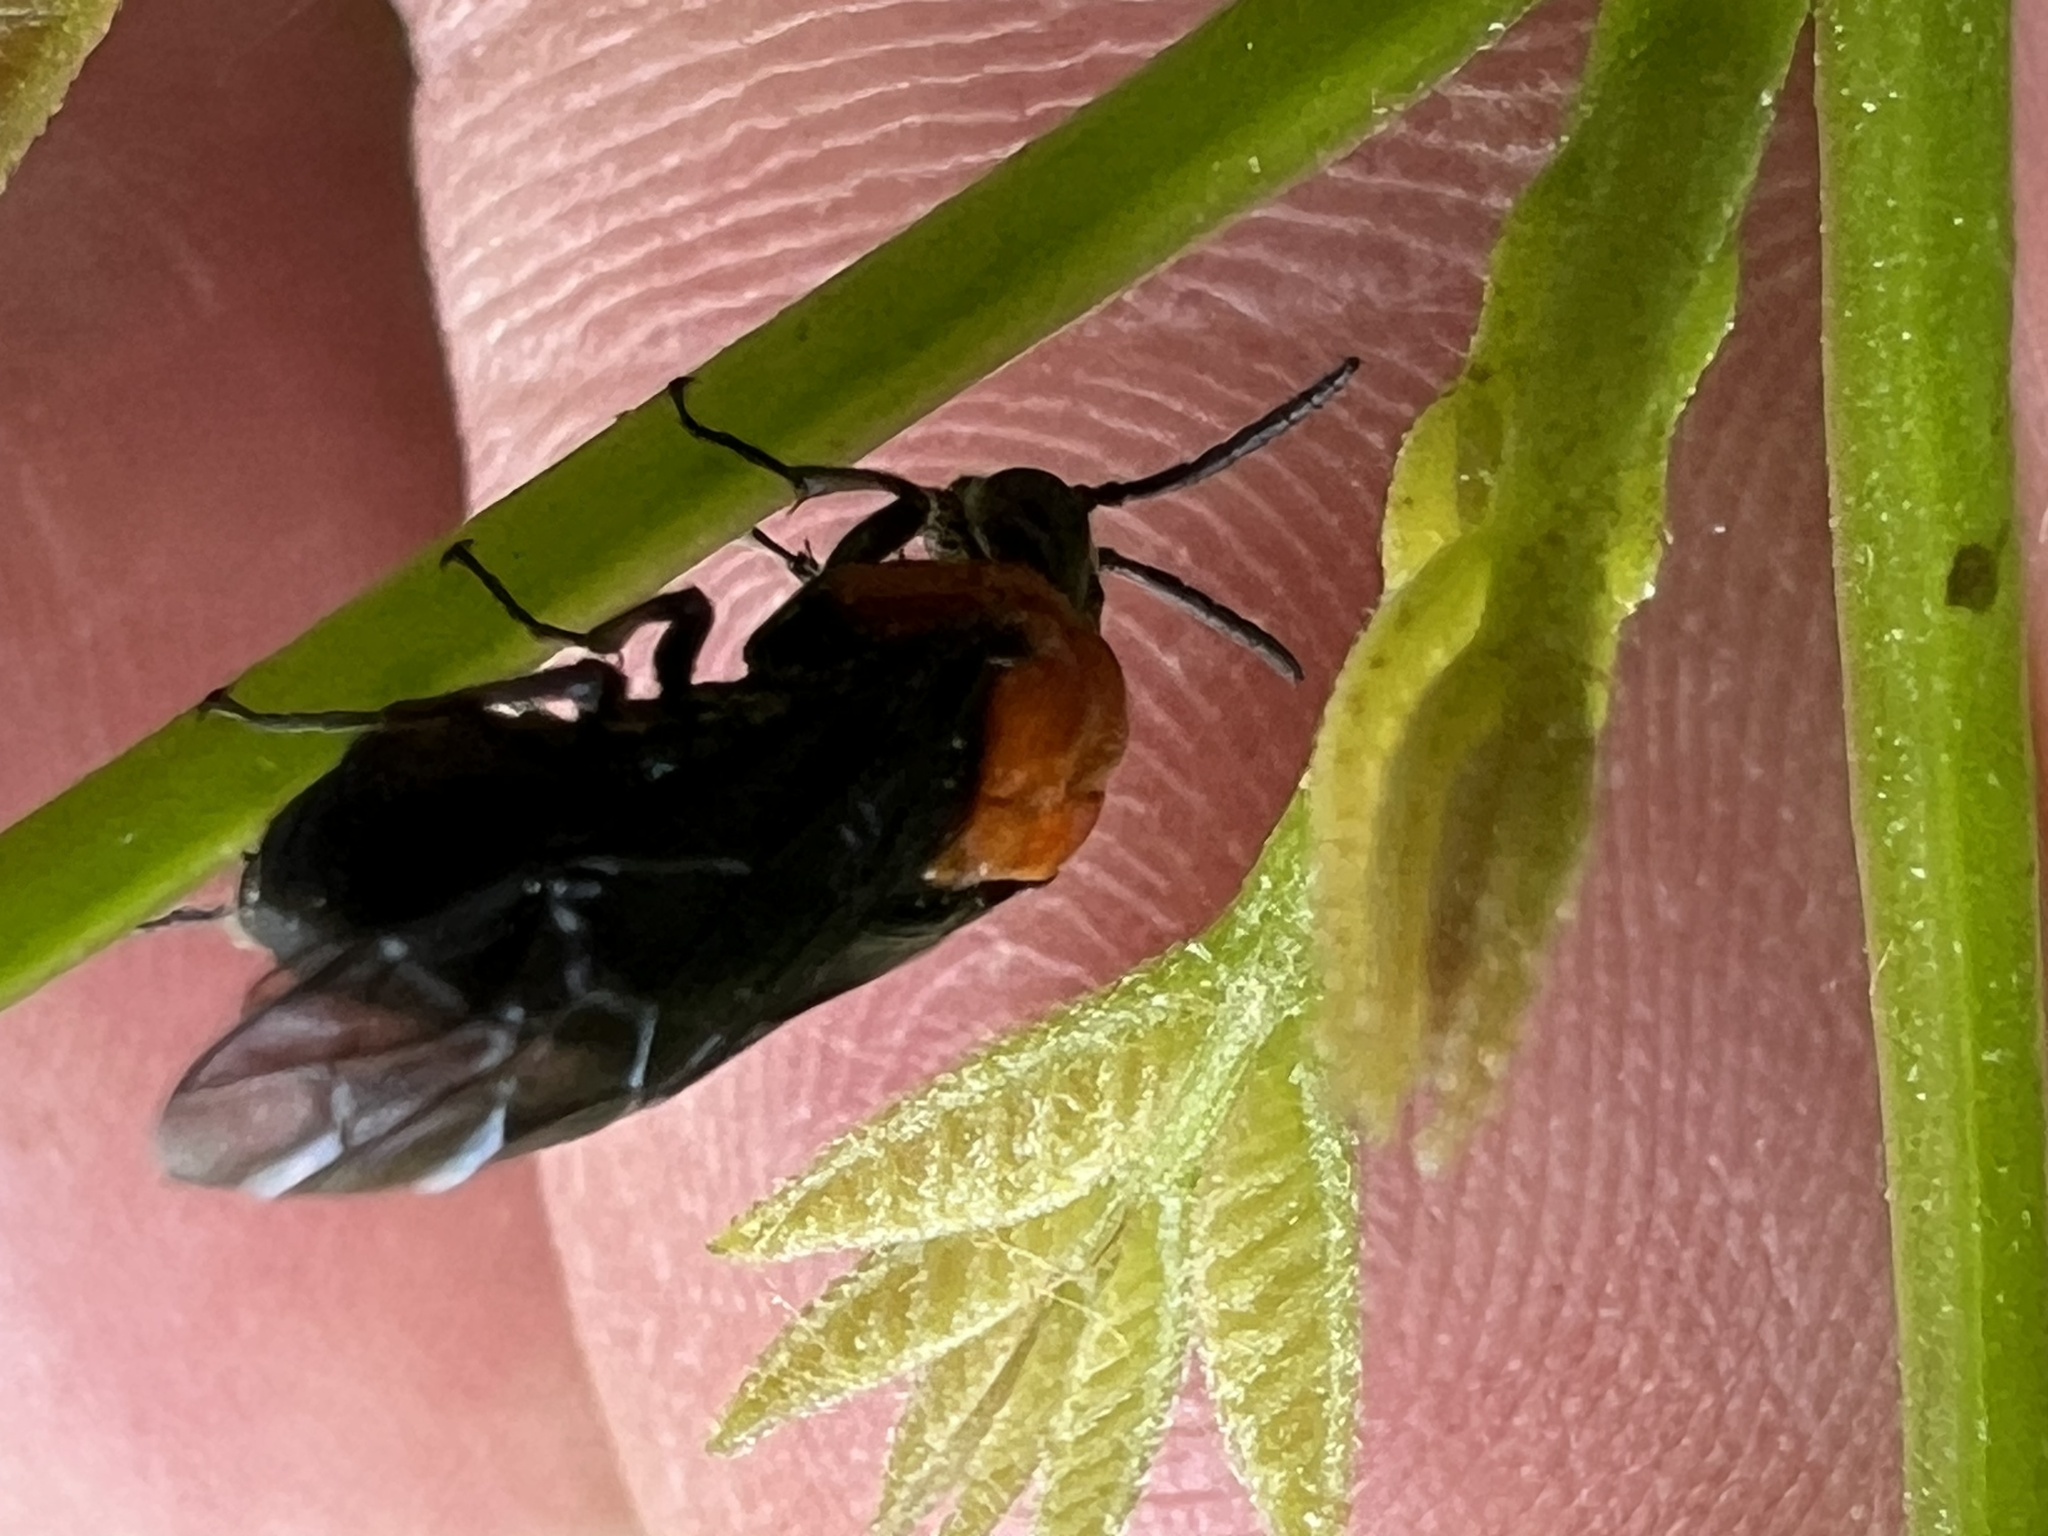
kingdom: Animalia
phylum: Arthropoda
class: Insecta
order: Hymenoptera
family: Tenthredinidae
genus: Tethida
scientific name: Tethida barda
